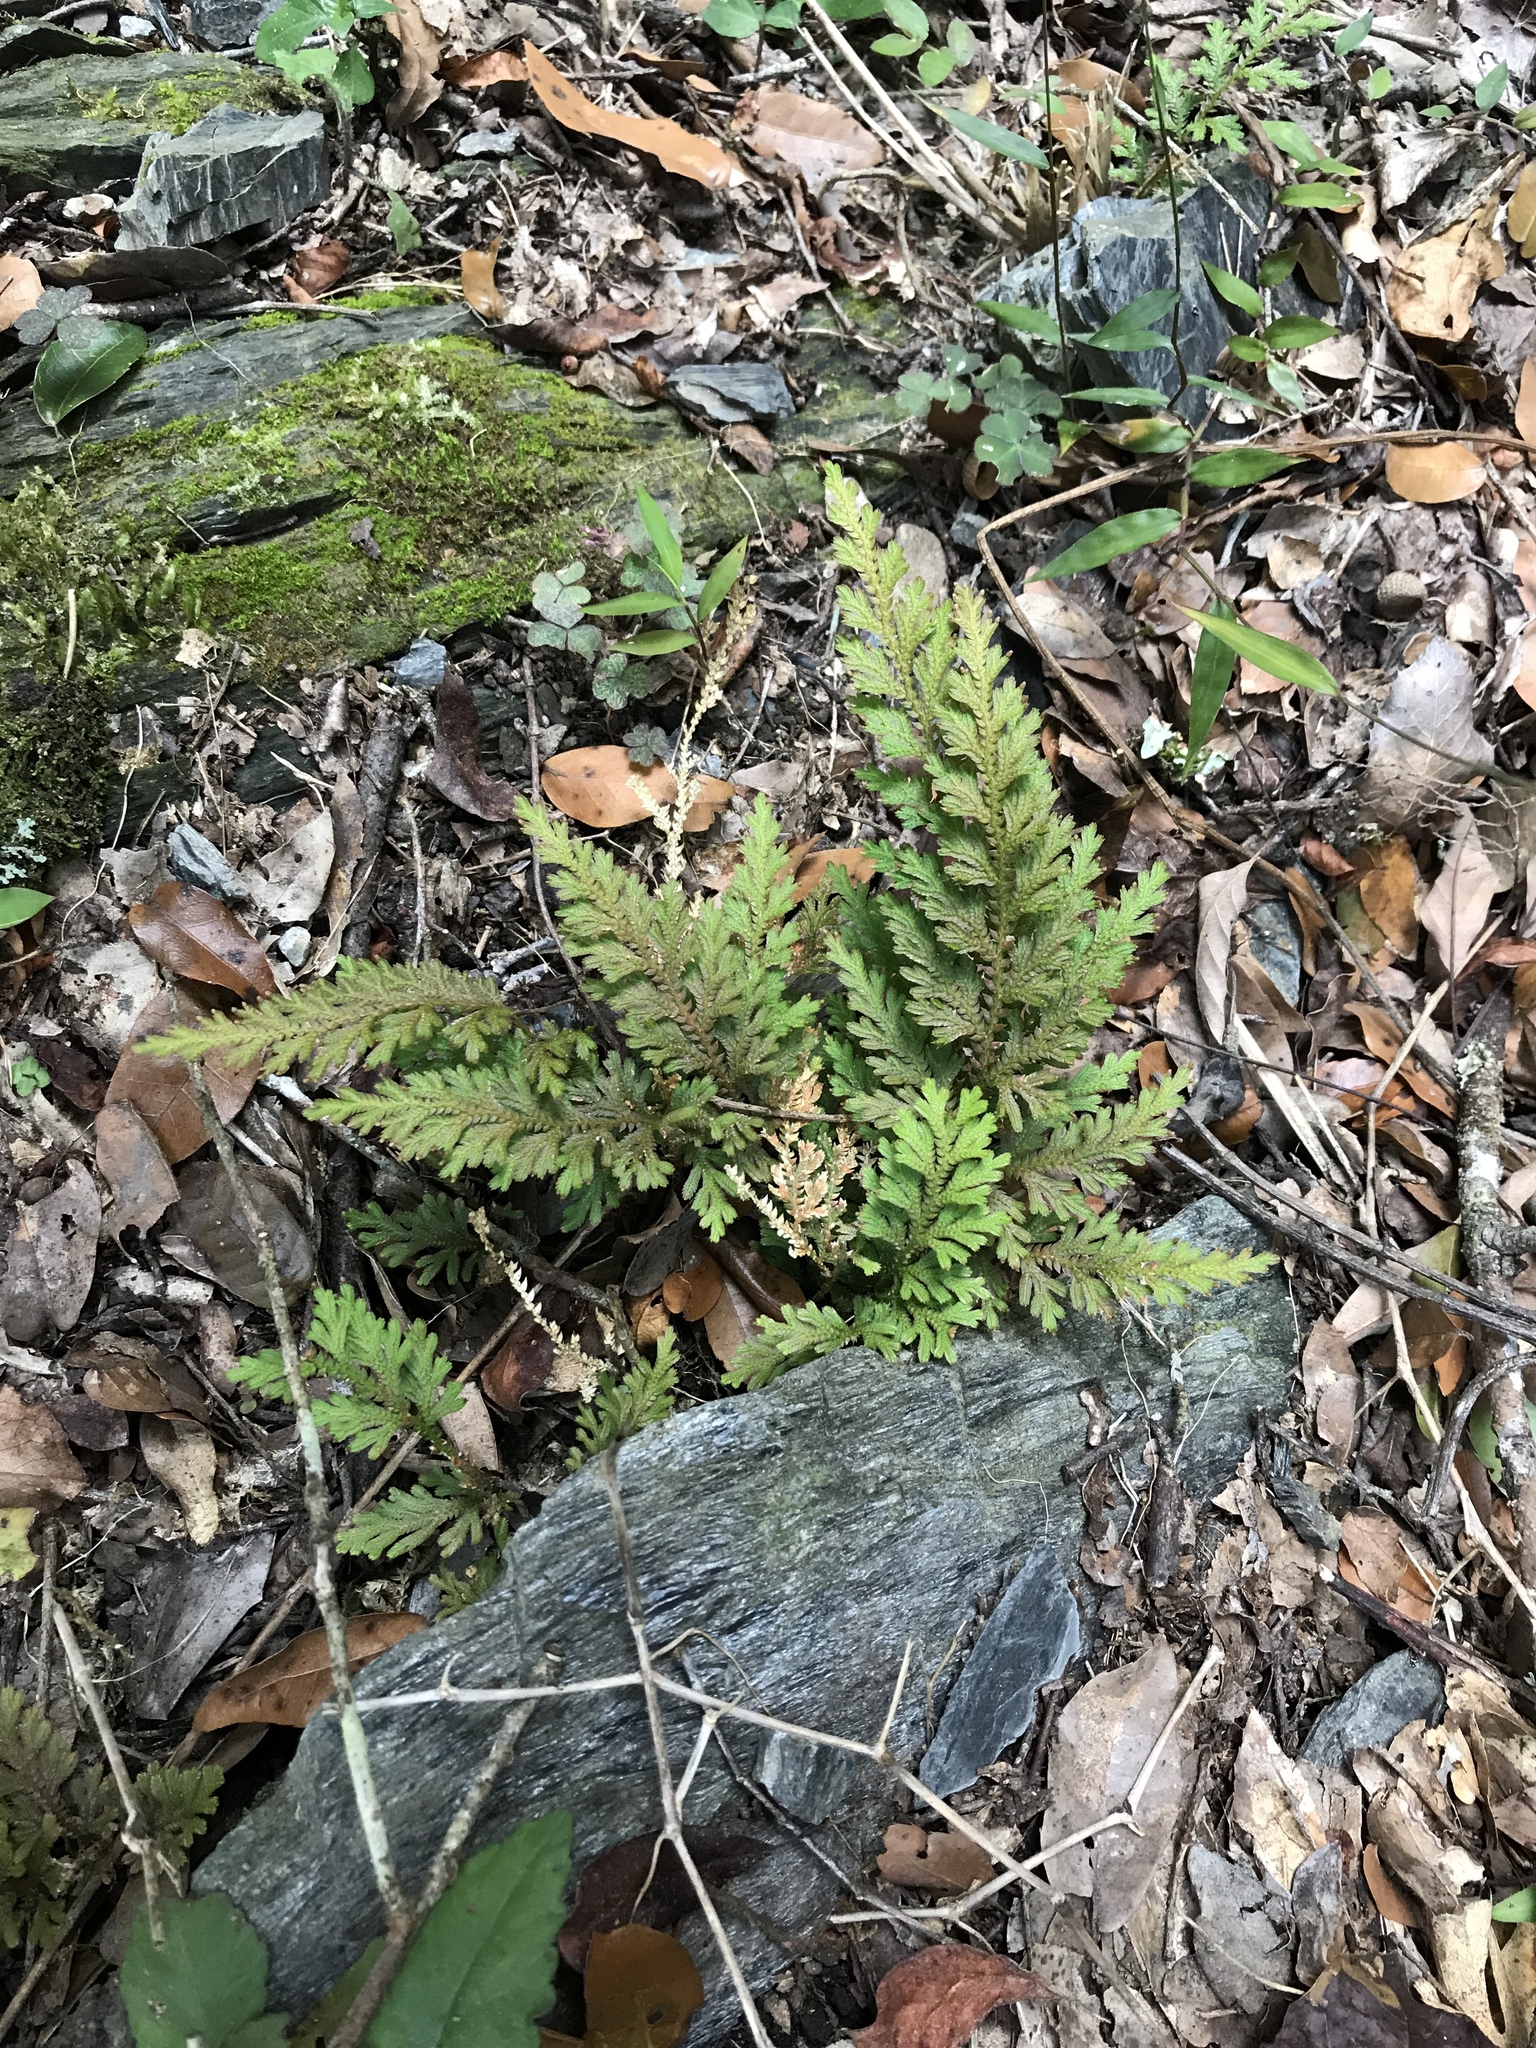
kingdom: Plantae
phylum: Tracheophyta
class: Lycopodiopsida
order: Selaginellales
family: Selaginellaceae
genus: Selaginella
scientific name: Selaginella moellendorffii
